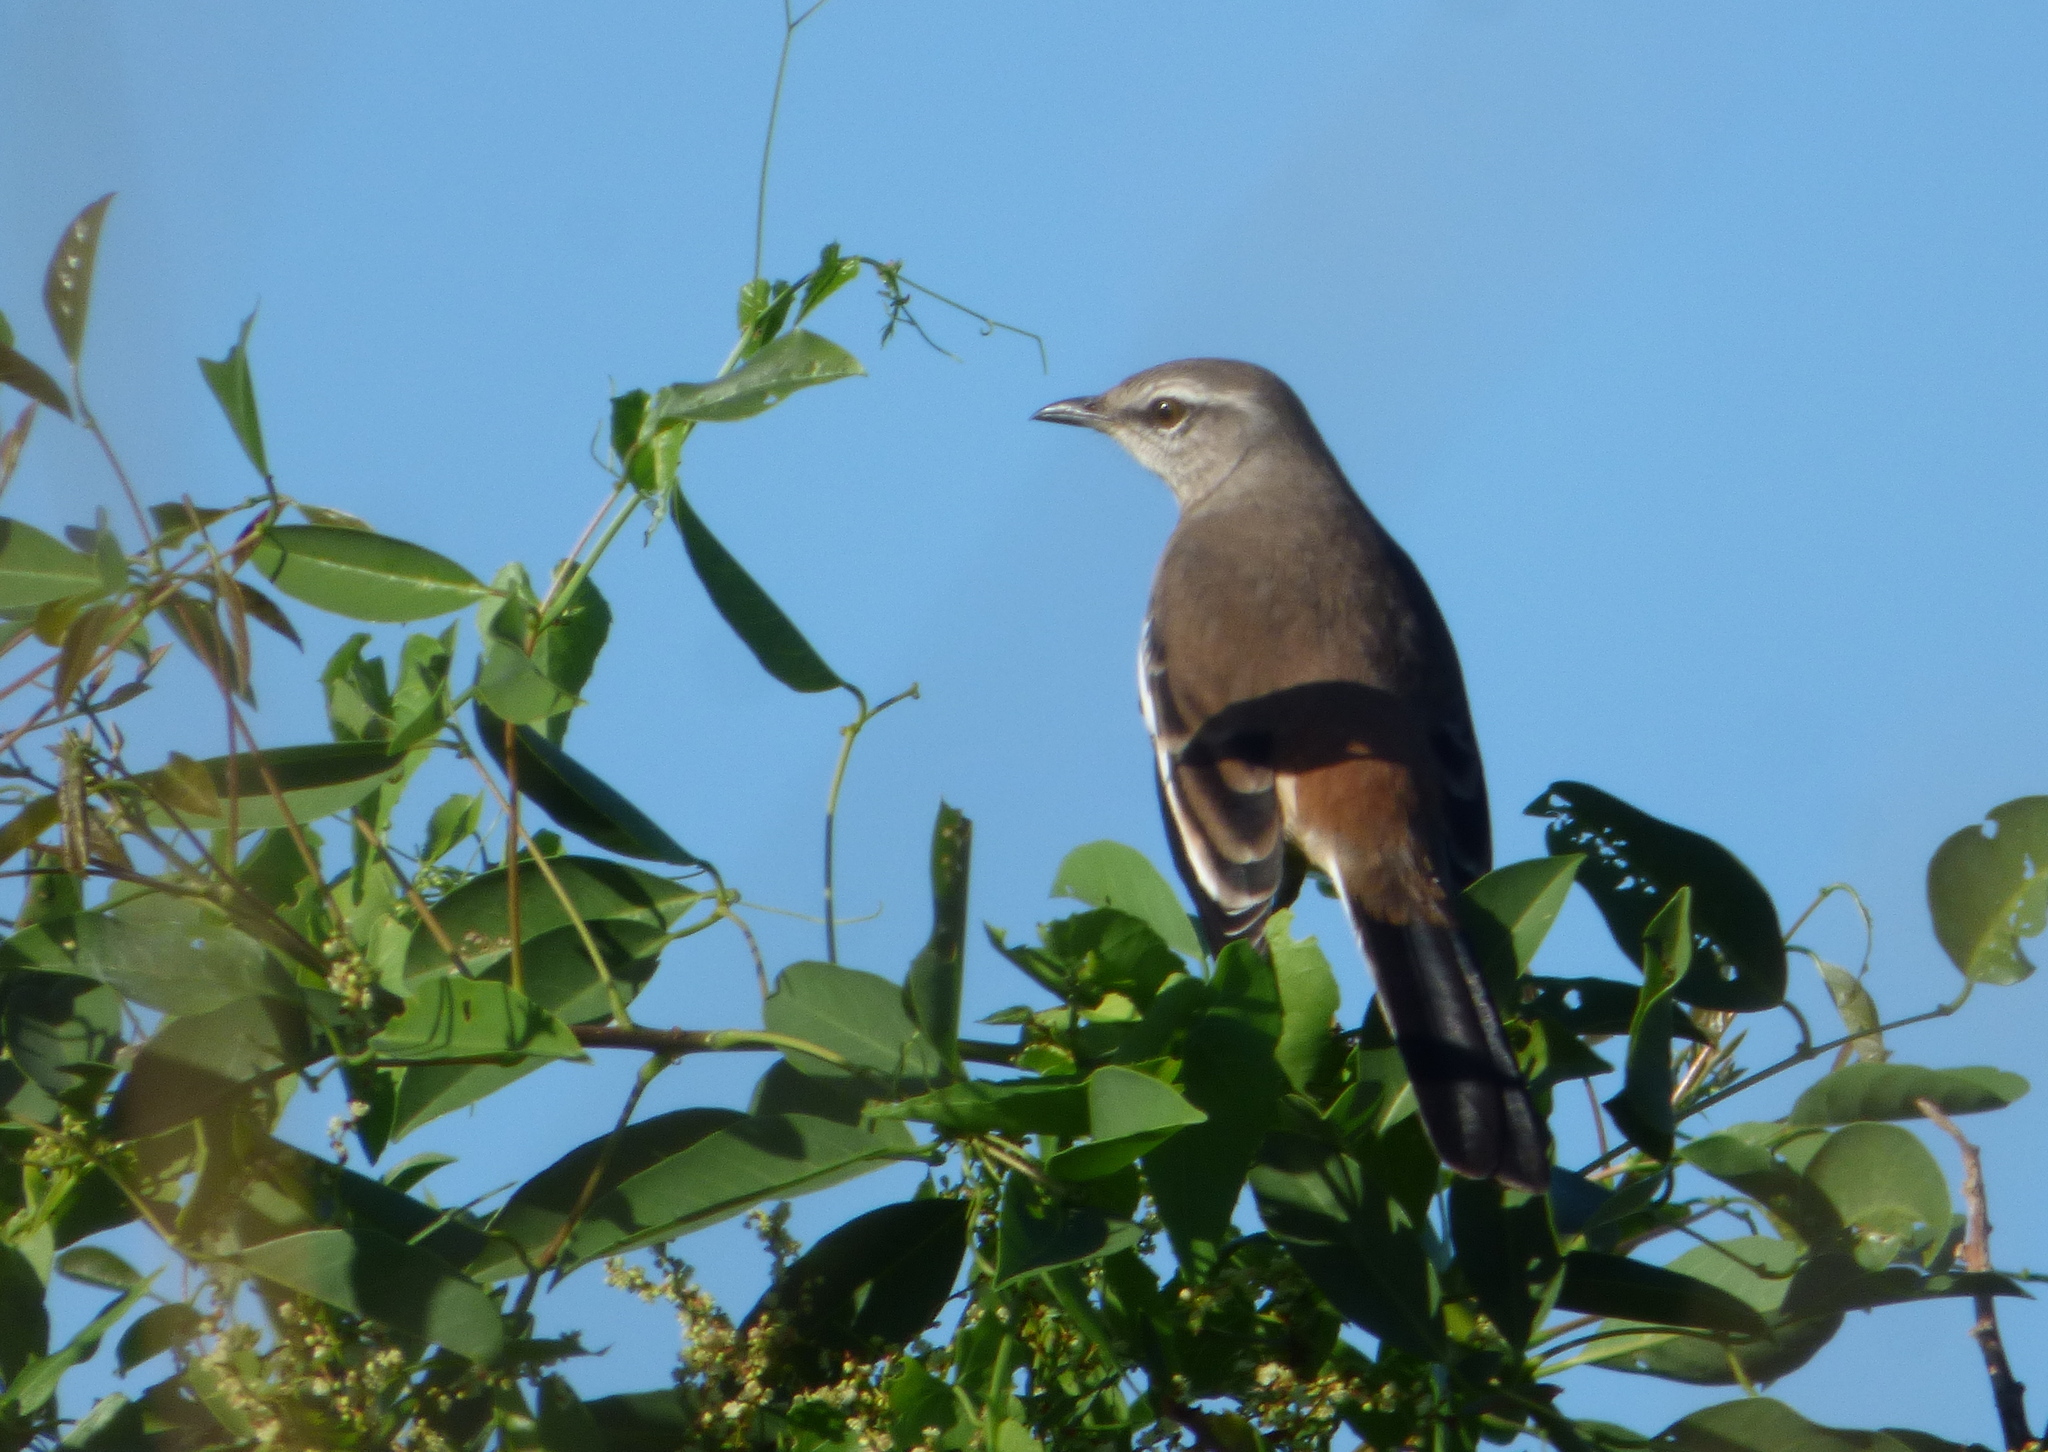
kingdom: Animalia
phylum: Chordata
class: Aves
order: Passeriformes
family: Mimidae
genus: Mimus
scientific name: Mimus triurus
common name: White-banded mockingbird
